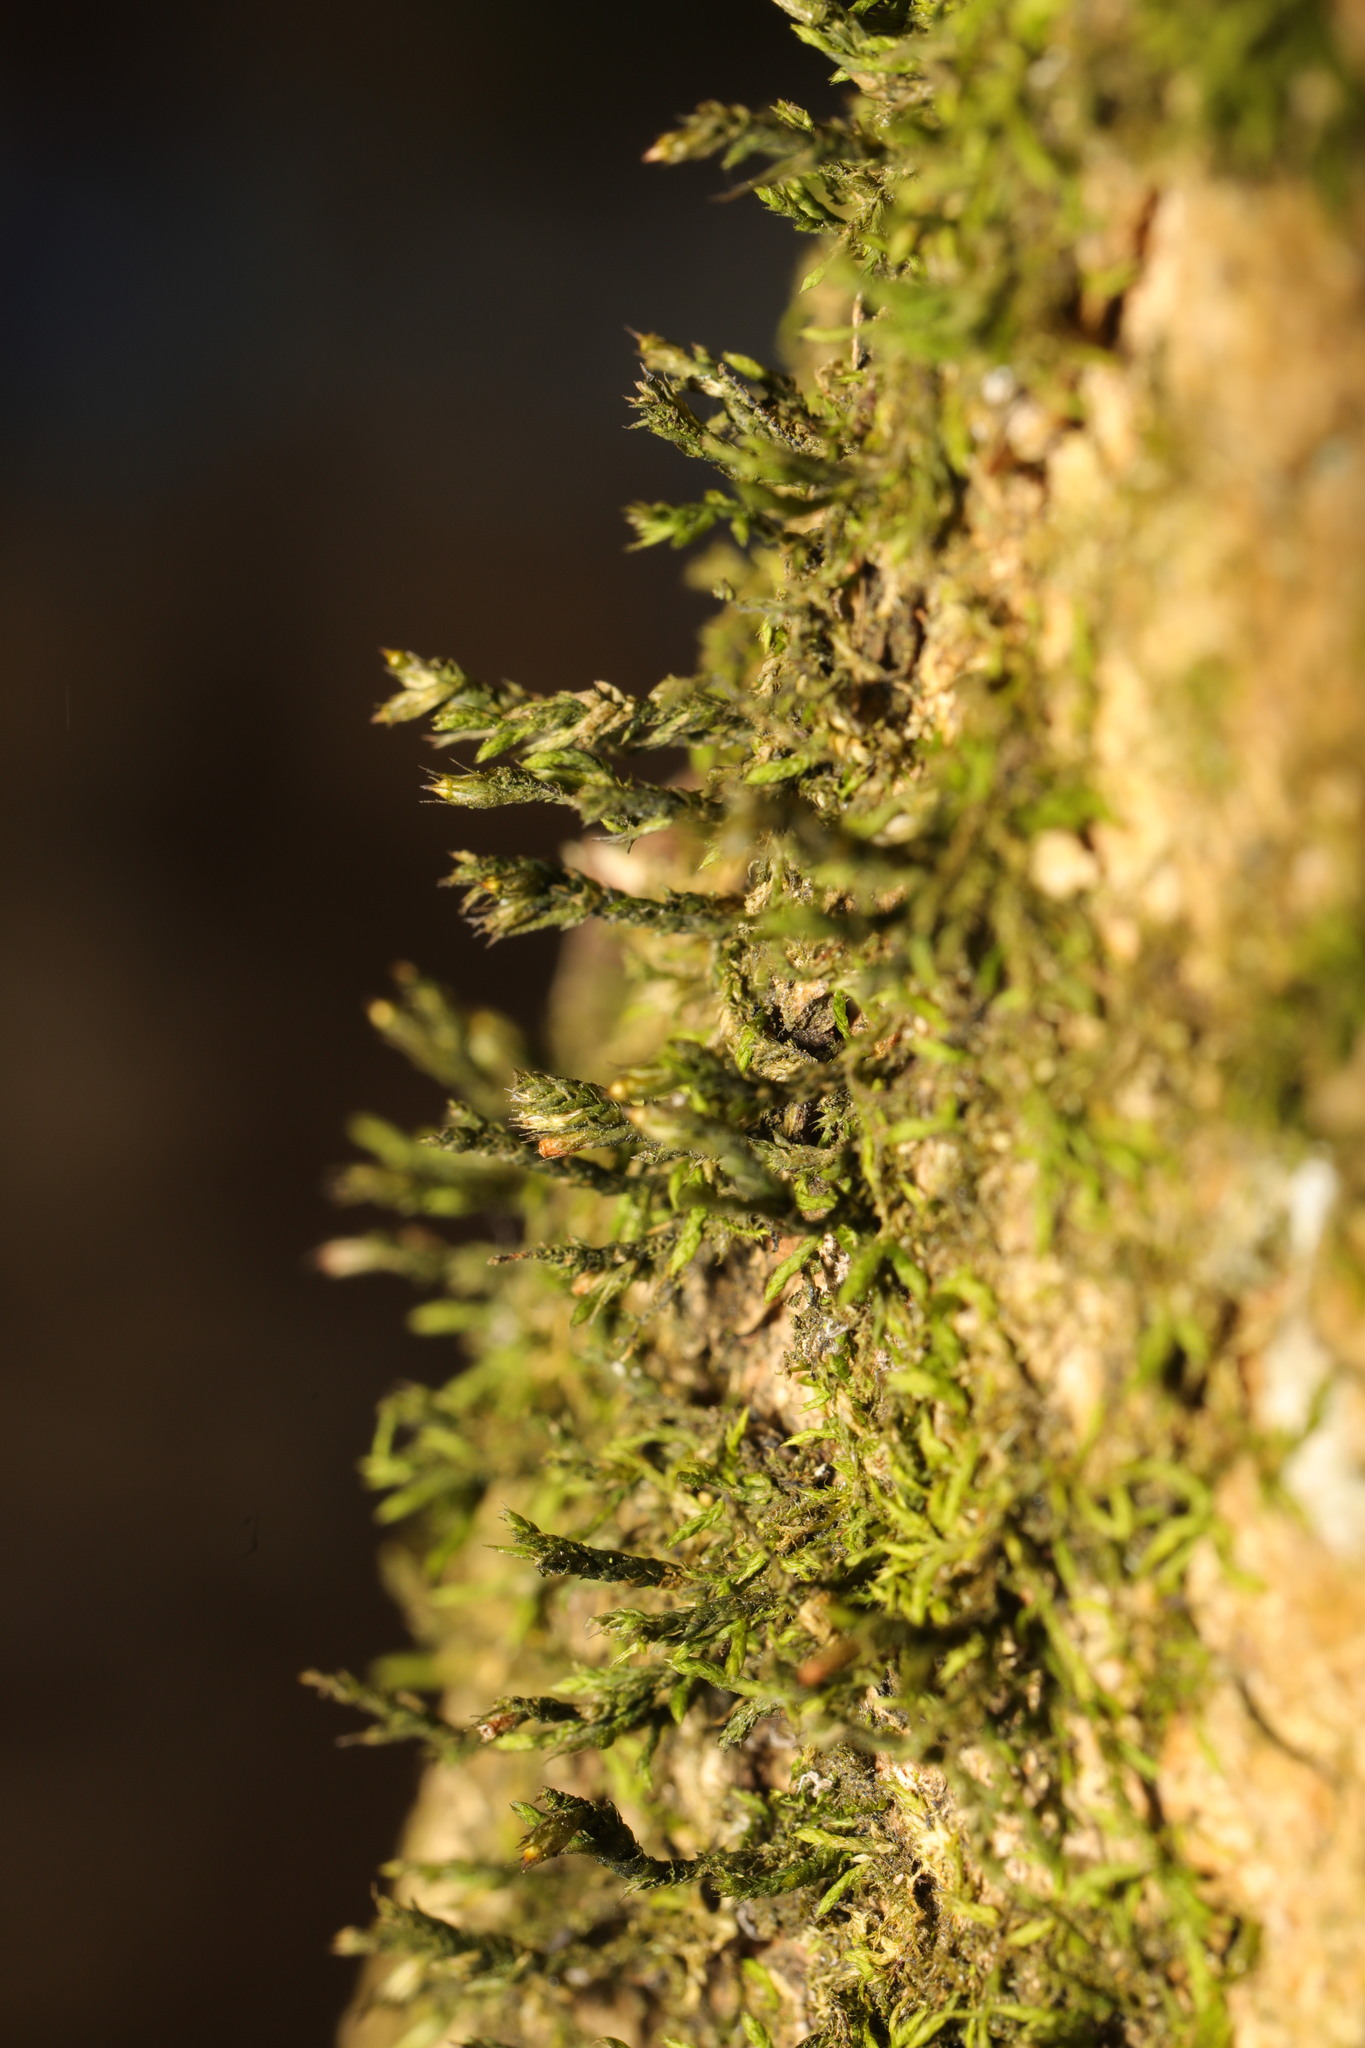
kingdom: Plantae
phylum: Bryophyta
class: Bryopsida
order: Hypnales
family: Cryphaeaceae
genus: Cryphaea
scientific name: Cryphaea heteromalla
